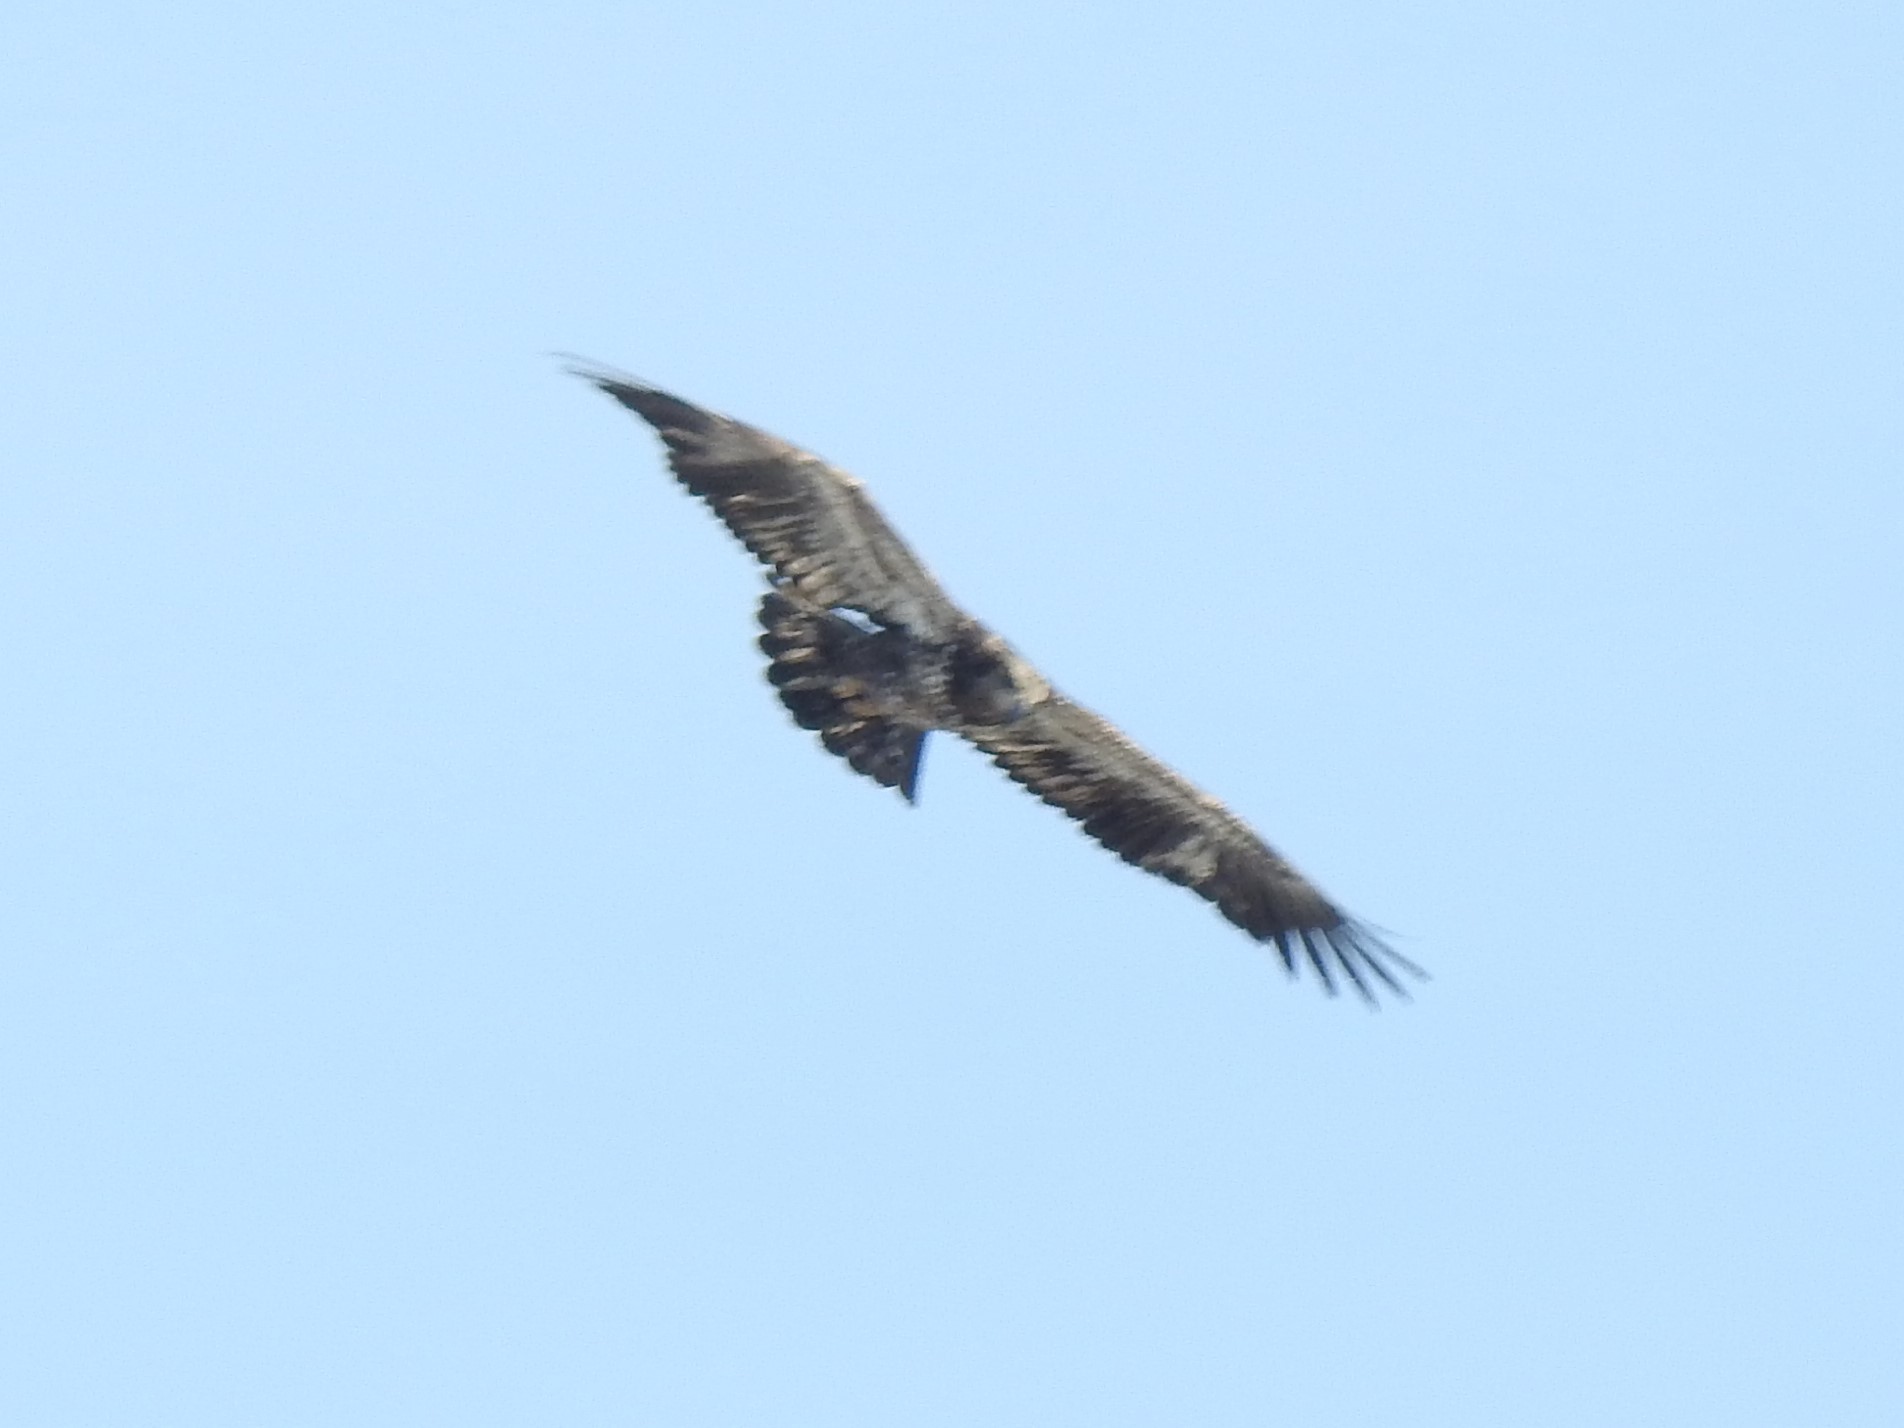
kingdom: Animalia
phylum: Chordata
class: Aves
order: Accipitriformes
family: Accipitridae
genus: Haliaeetus
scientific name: Haliaeetus leucocephalus
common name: Bald eagle
